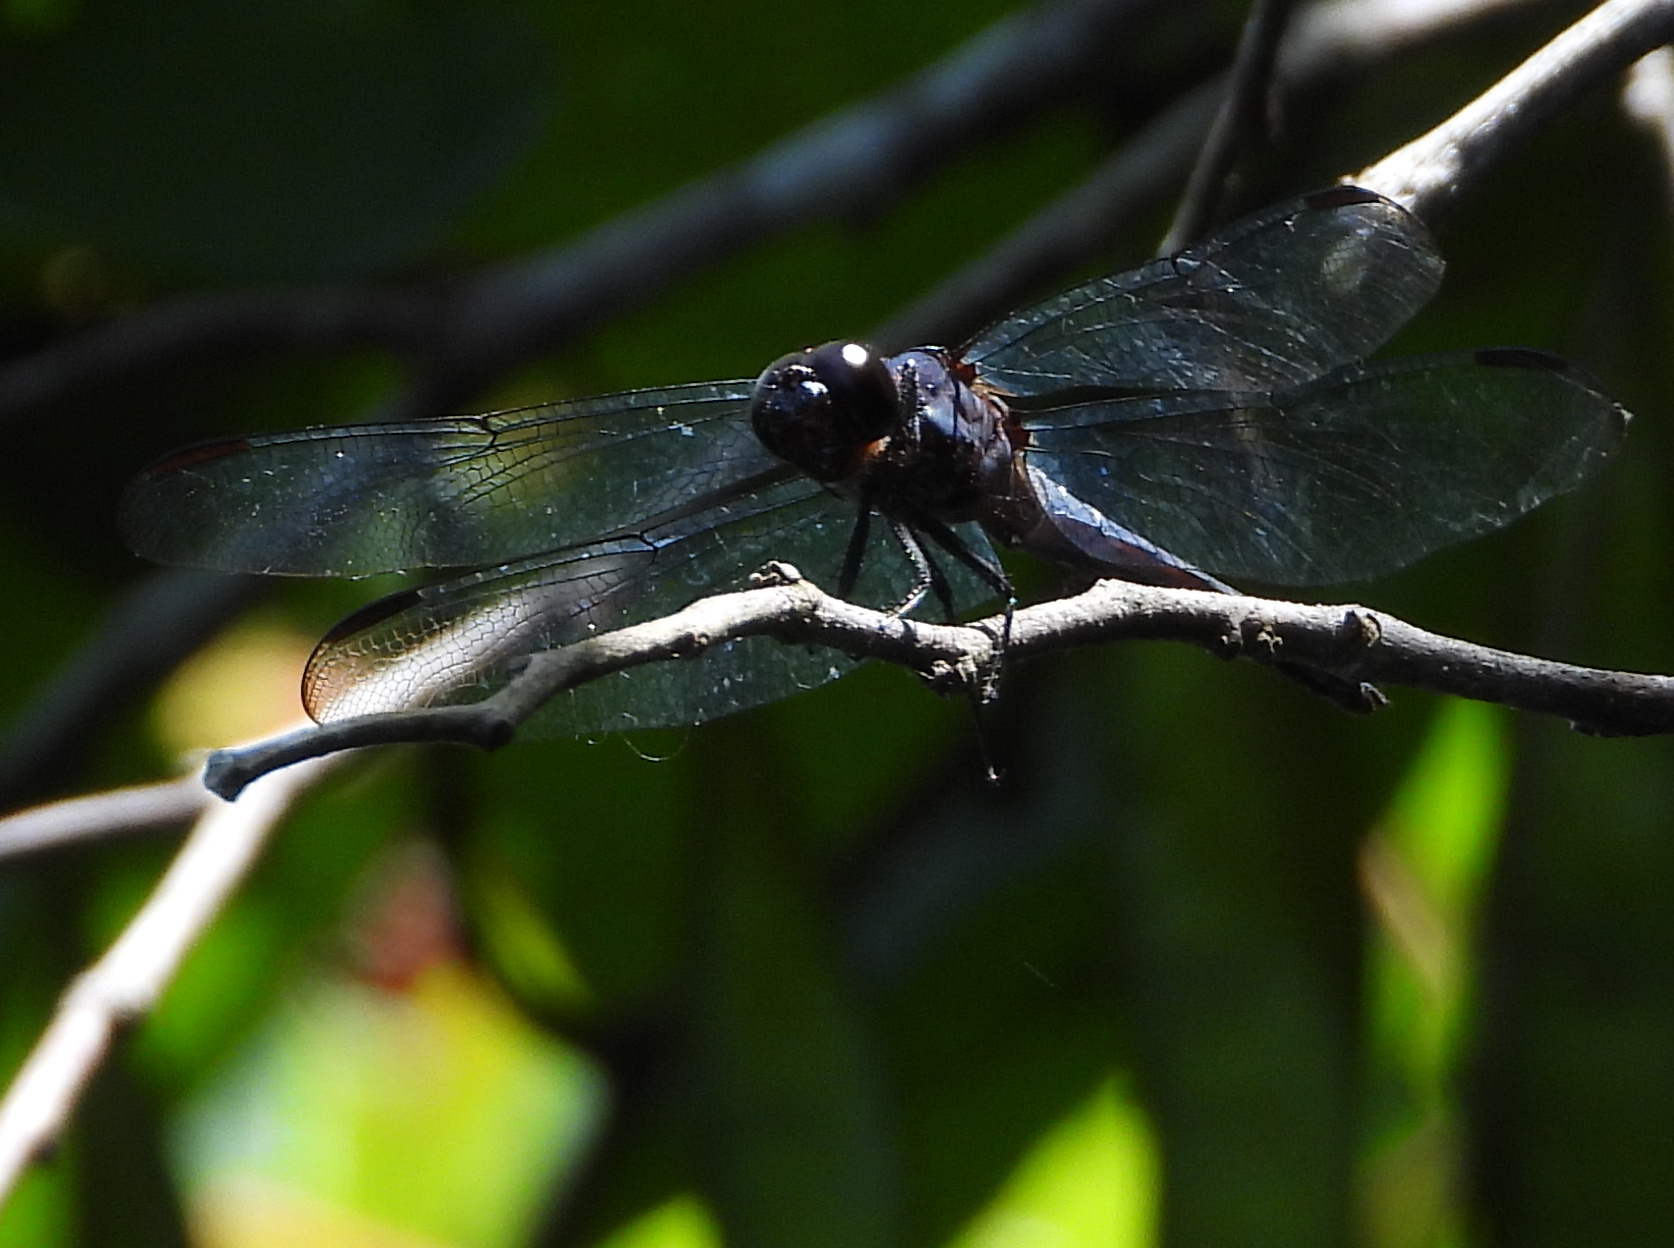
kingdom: Animalia
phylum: Arthropoda
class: Insecta
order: Odonata
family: Libellulidae
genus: Libellula
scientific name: Libellula incesta
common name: Slaty skimmer
